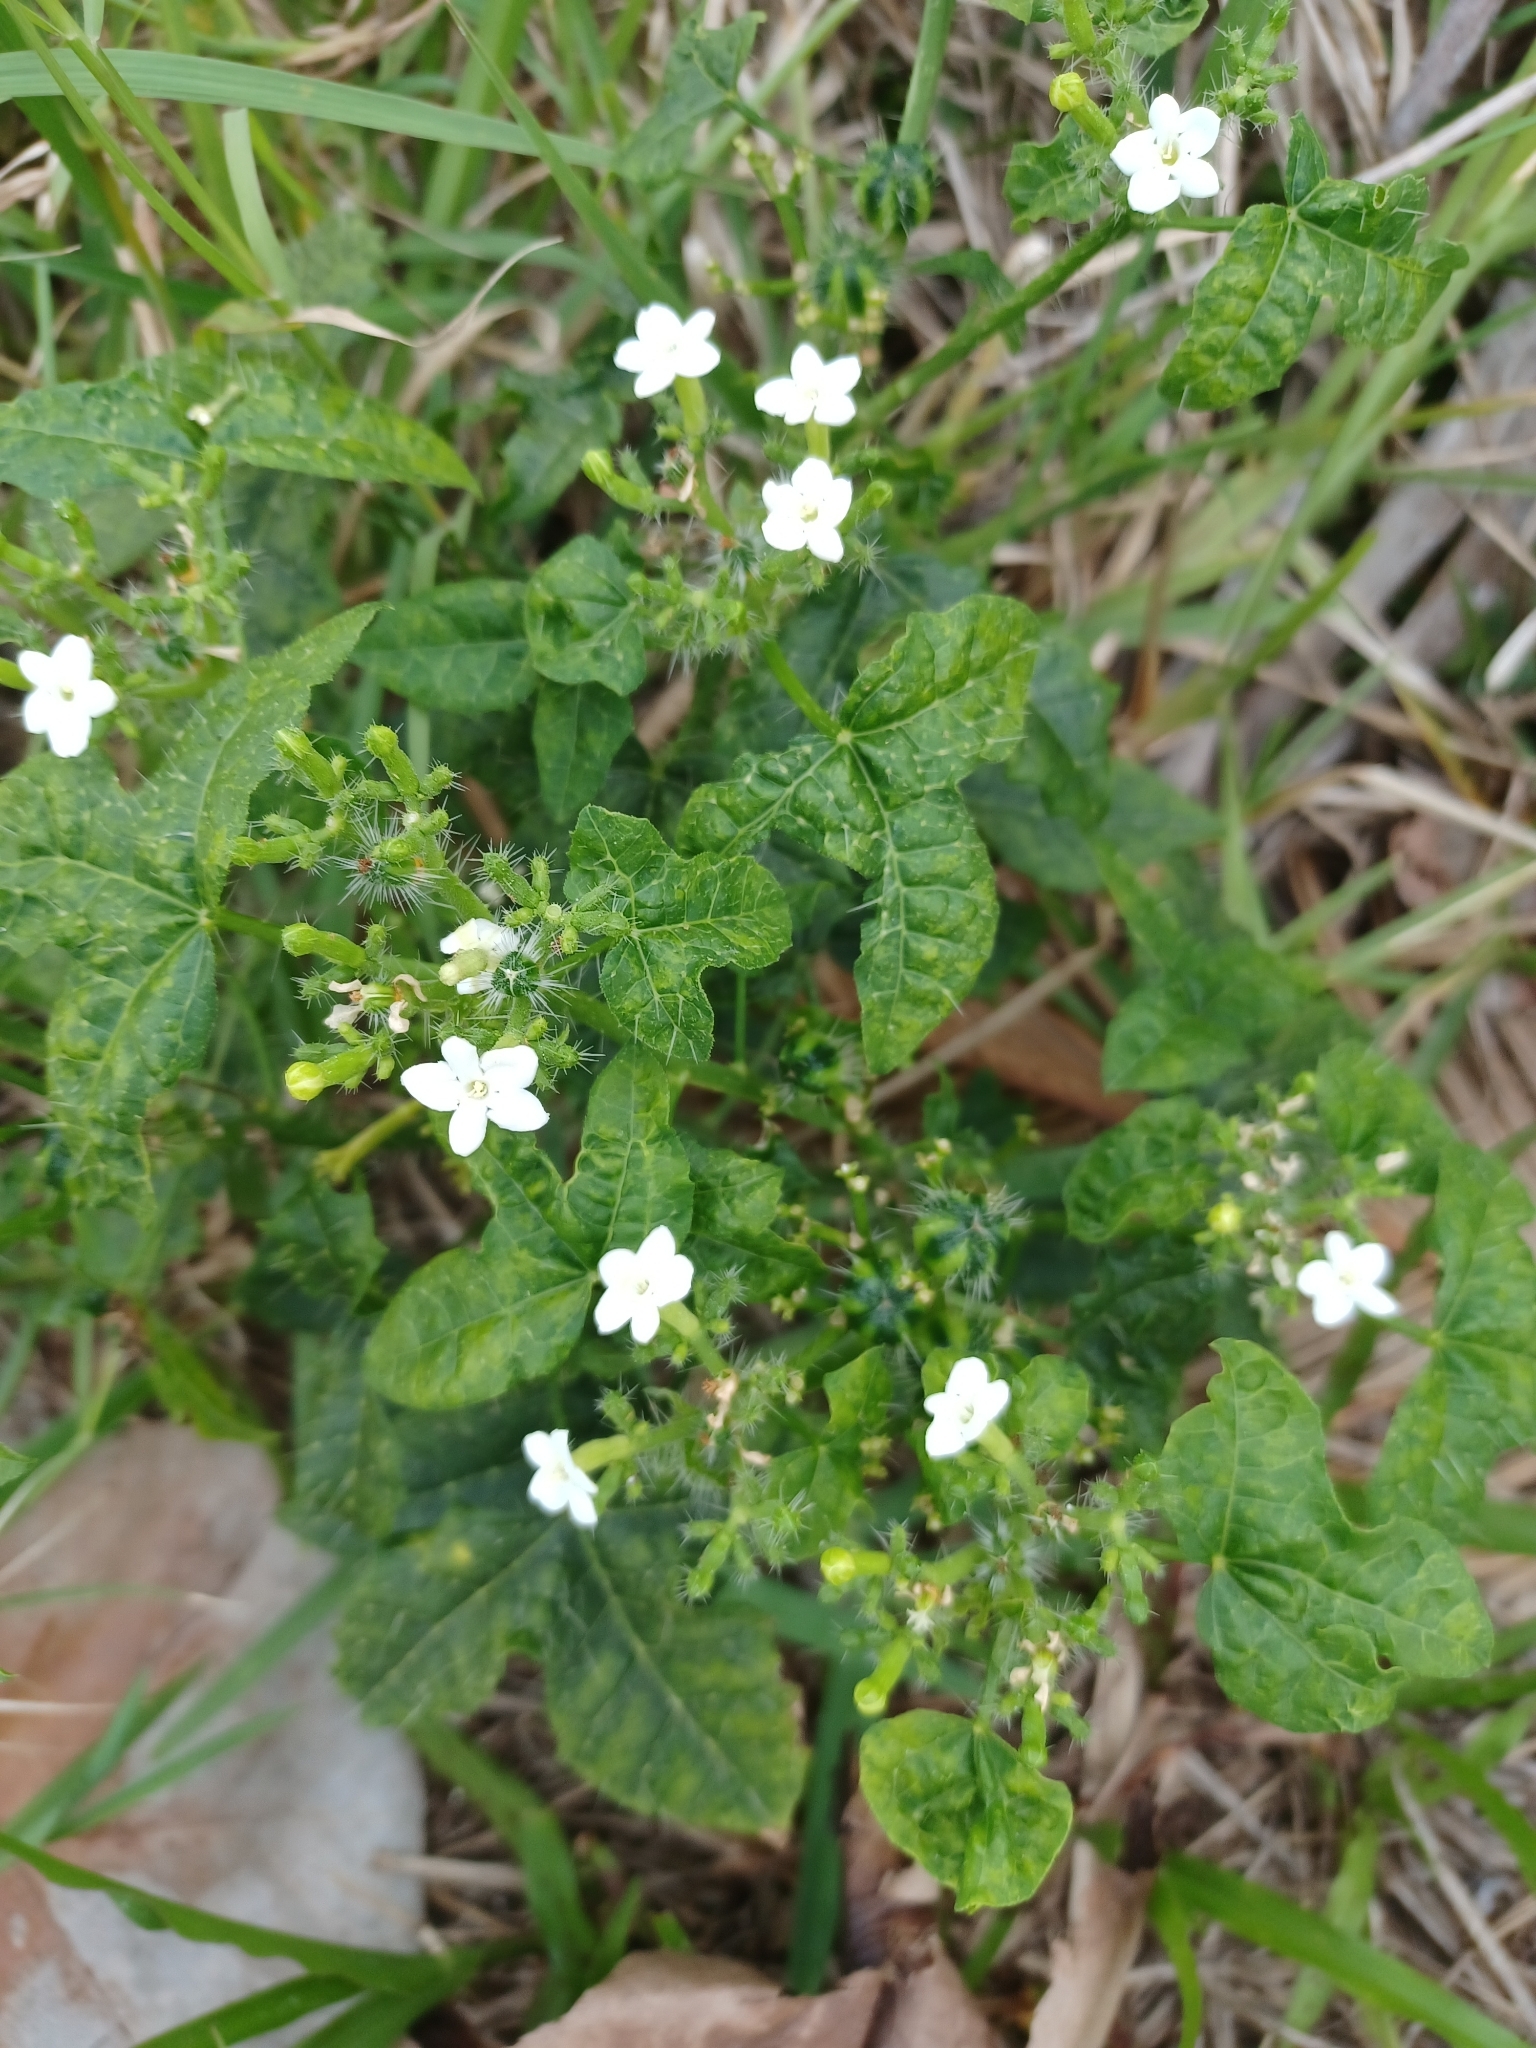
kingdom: Plantae
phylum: Tracheophyta
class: Magnoliopsida
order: Malpighiales
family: Euphorbiaceae
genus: Cnidoscolus
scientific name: Cnidoscolus stimulosus
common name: Bull-nettle
